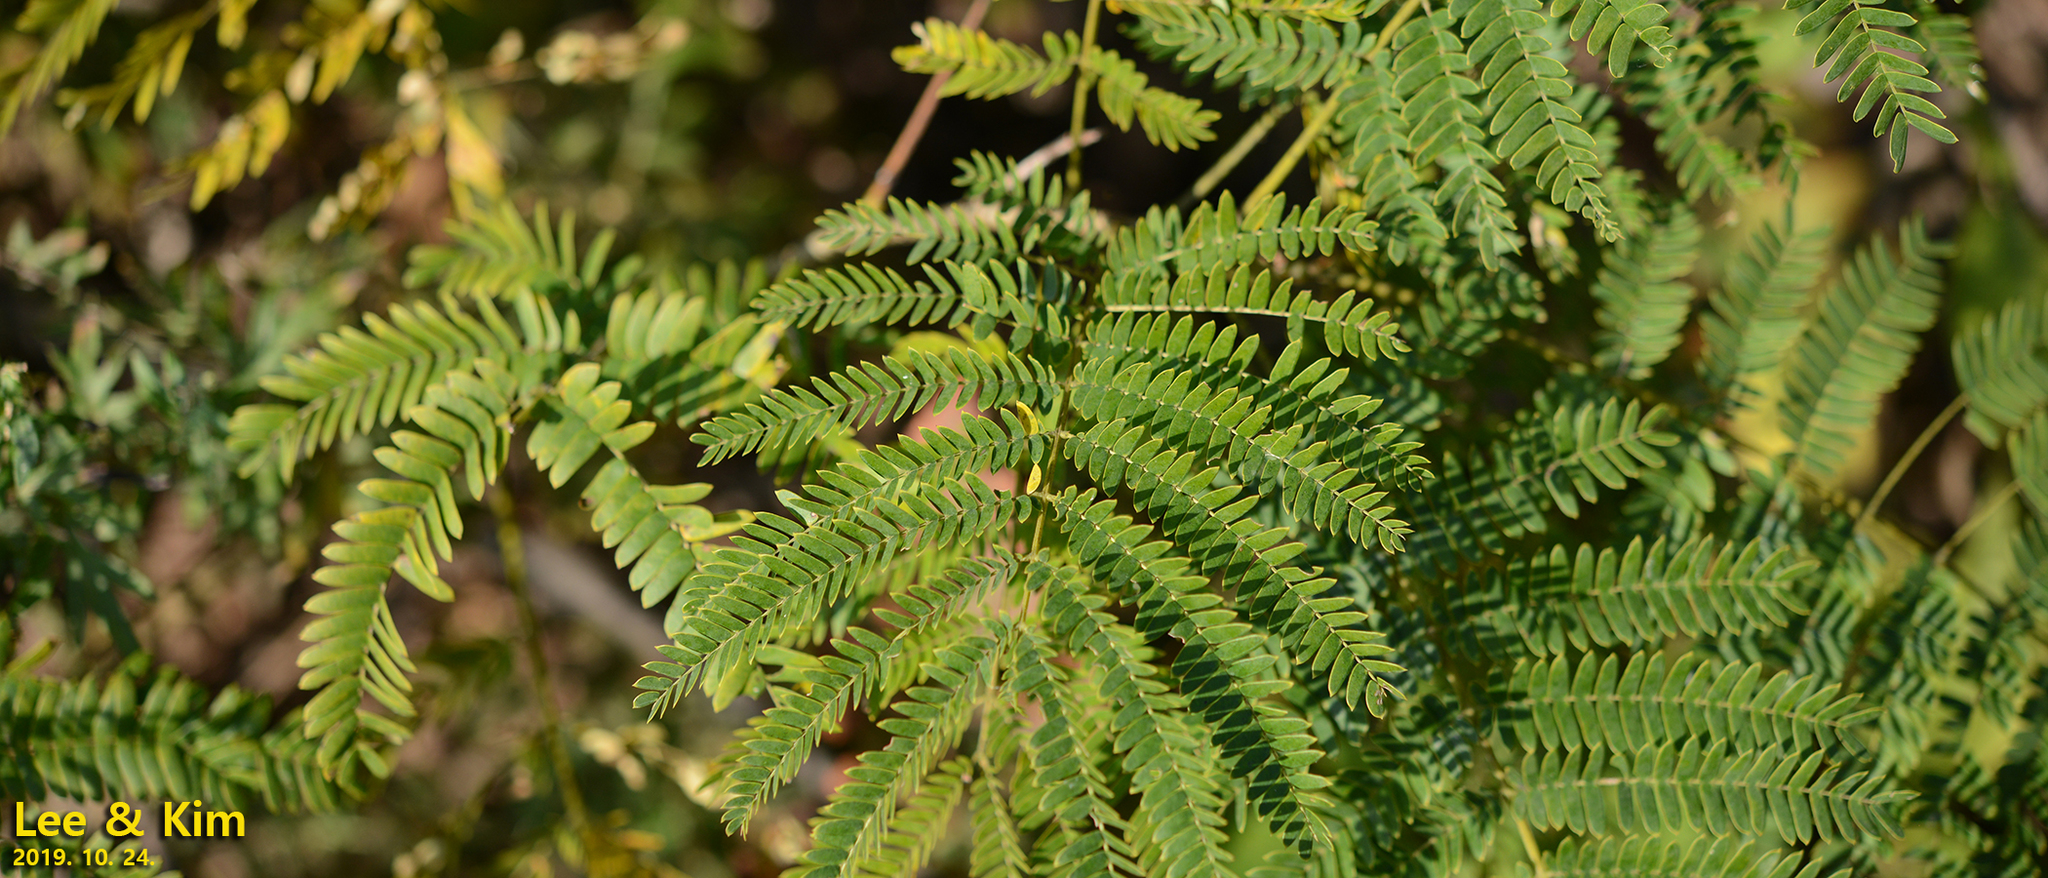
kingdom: Plantae
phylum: Tracheophyta
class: Magnoliopsida
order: Fabales
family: Fabaceae
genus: Albizia
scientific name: Albizia julibrissin
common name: Silktree
